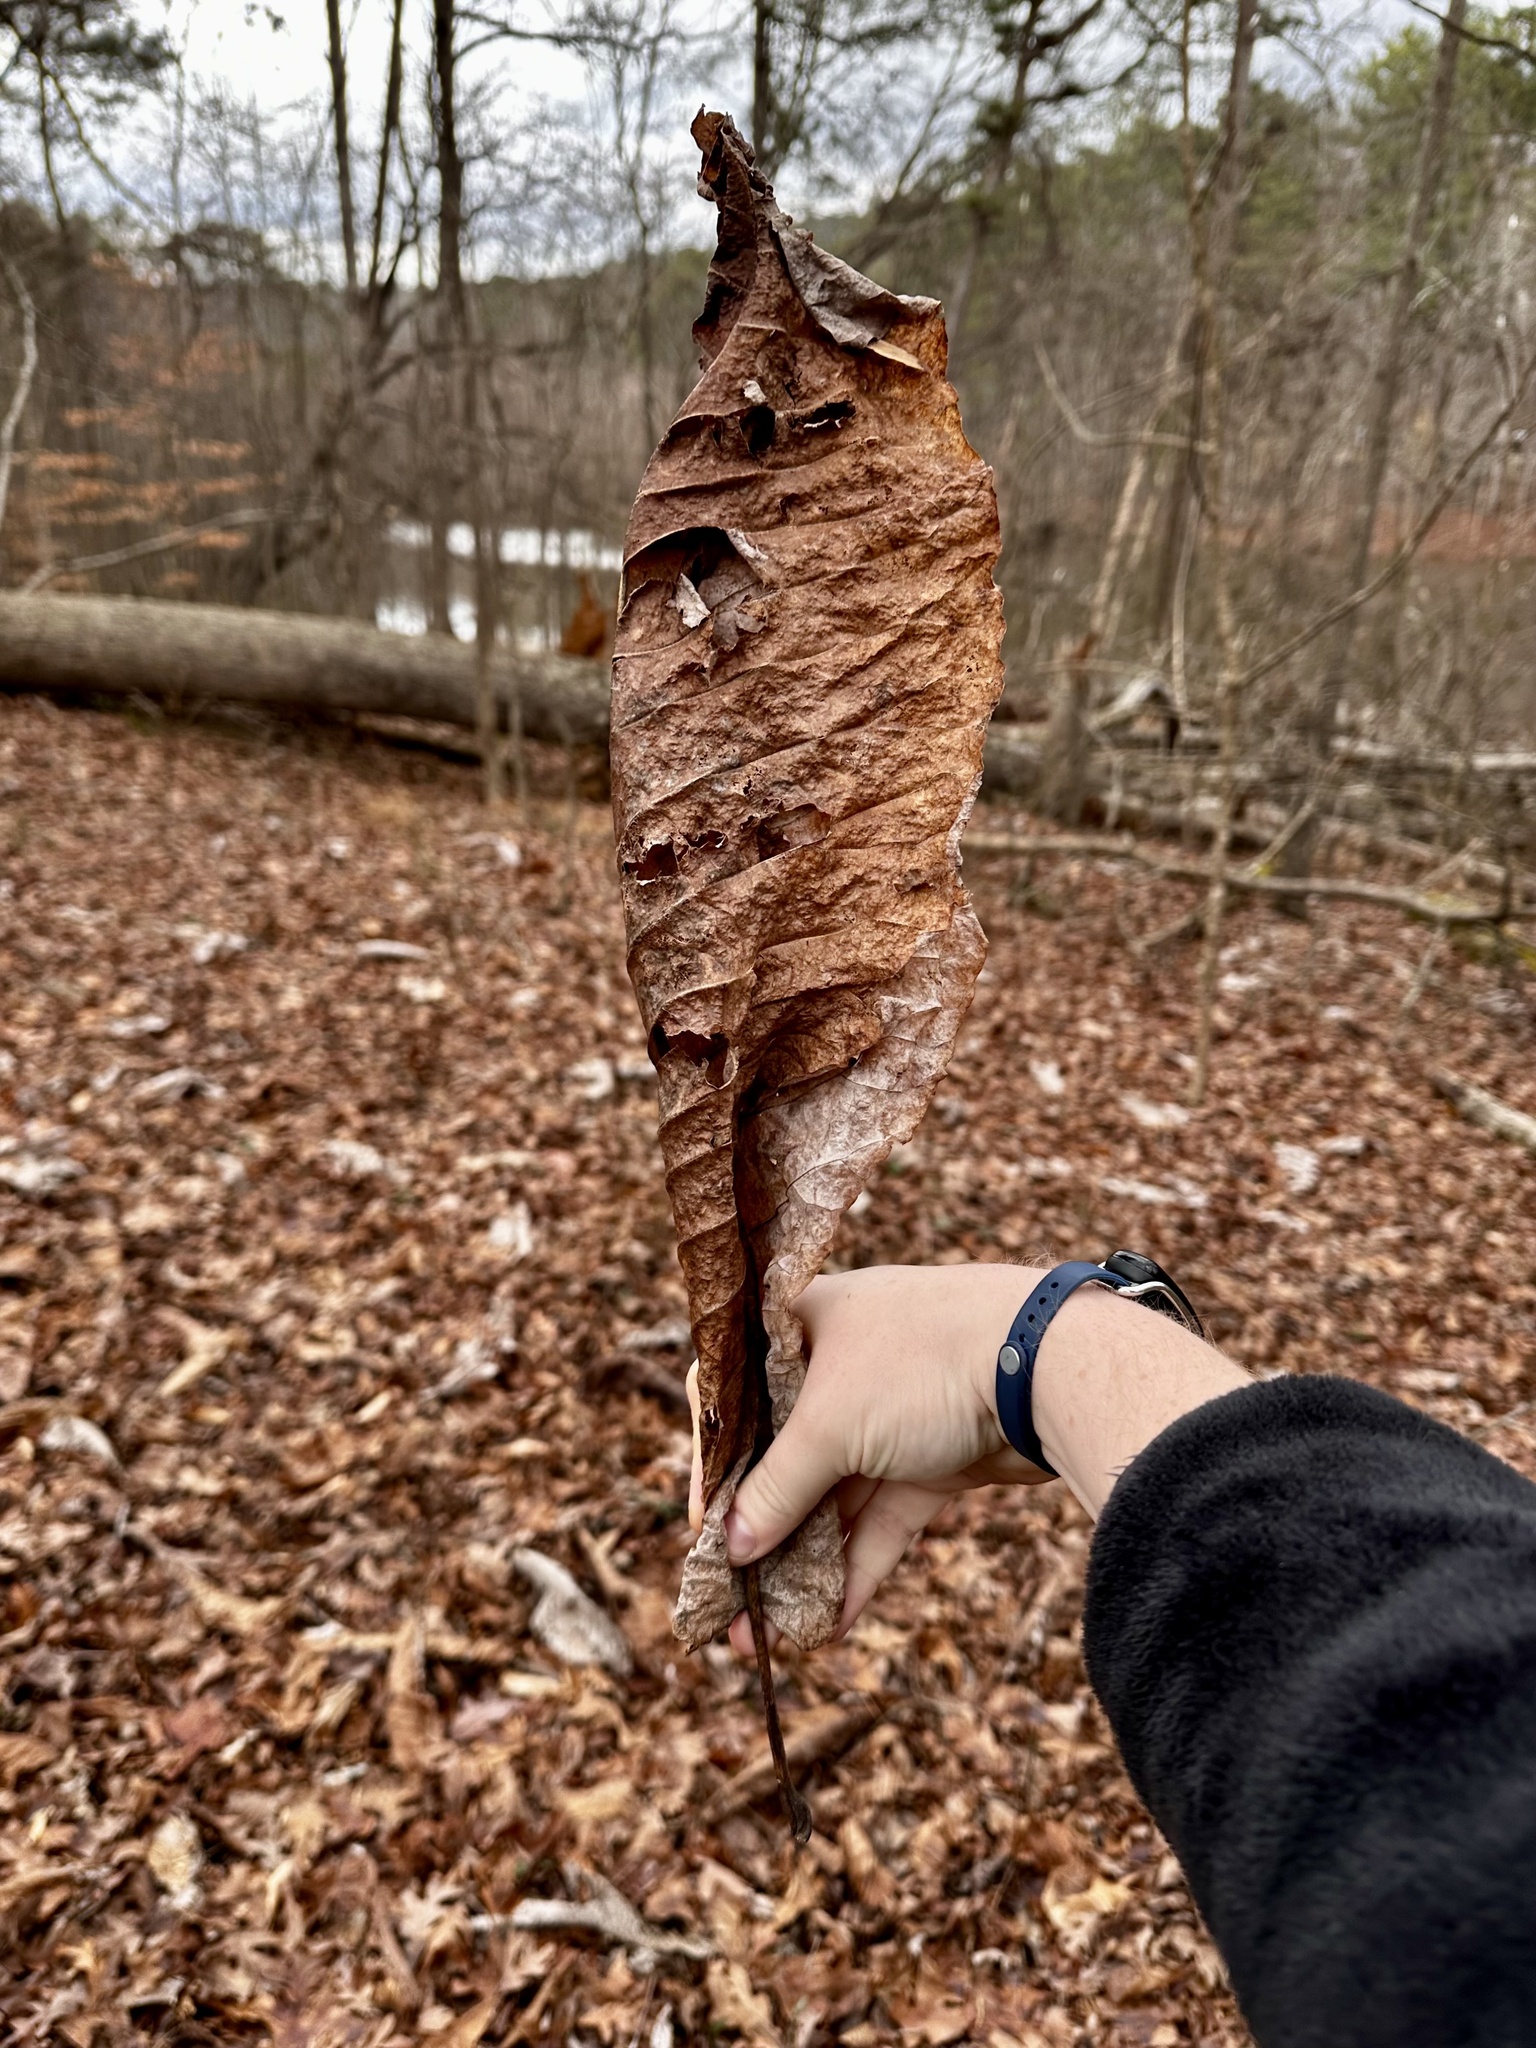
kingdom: Plantae
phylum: Tracheophyta
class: Magnoliopsida
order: Magnoliales
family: Magnoliaceae
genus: Magnolia
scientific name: Magnolia macrophylla
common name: Big-leaf magnolia
